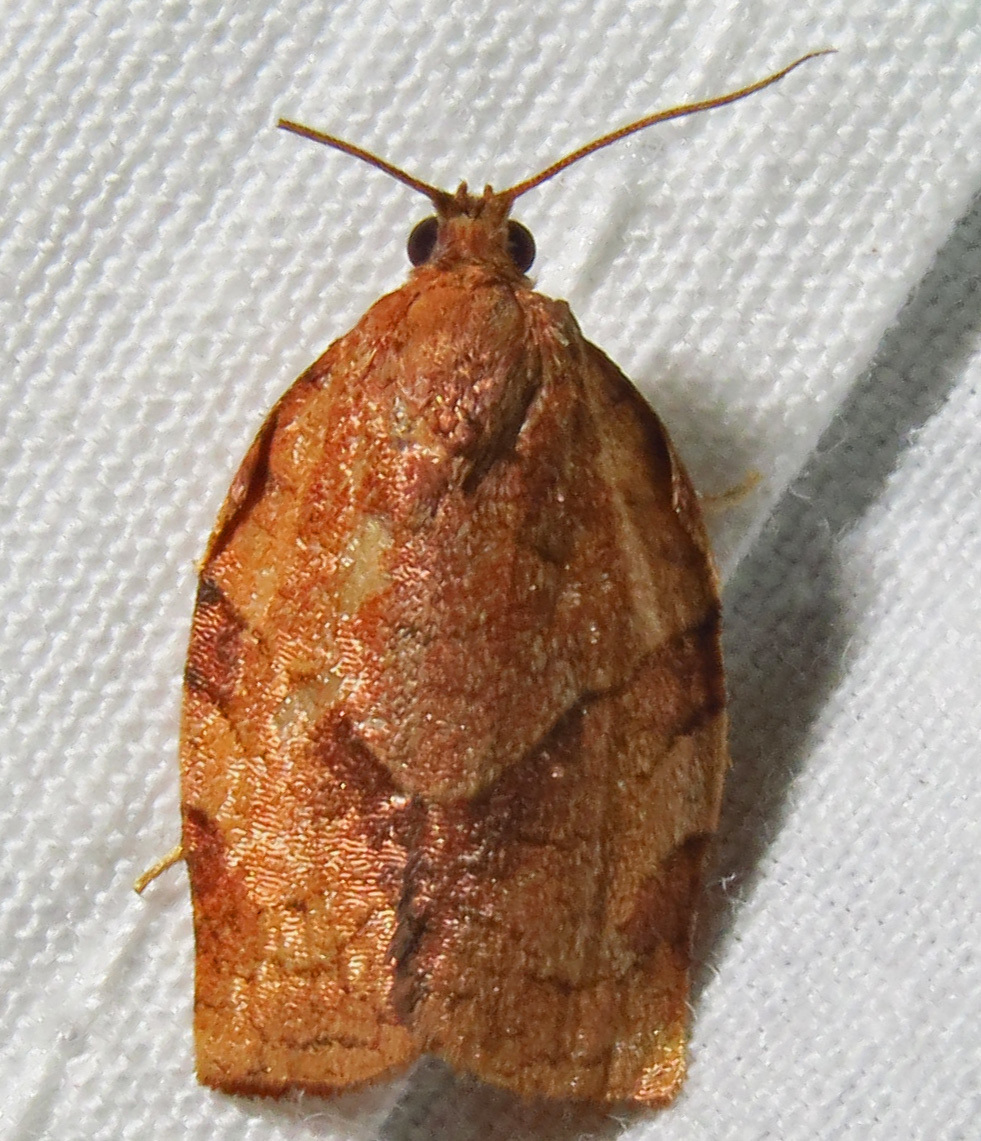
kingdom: Animalia
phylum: Arthropoda
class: Insecta
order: Lepidoptera
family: Tortricidae
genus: Choristoneura
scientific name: Choristoneura rosaceana
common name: Oblique-banded leafroller moth
